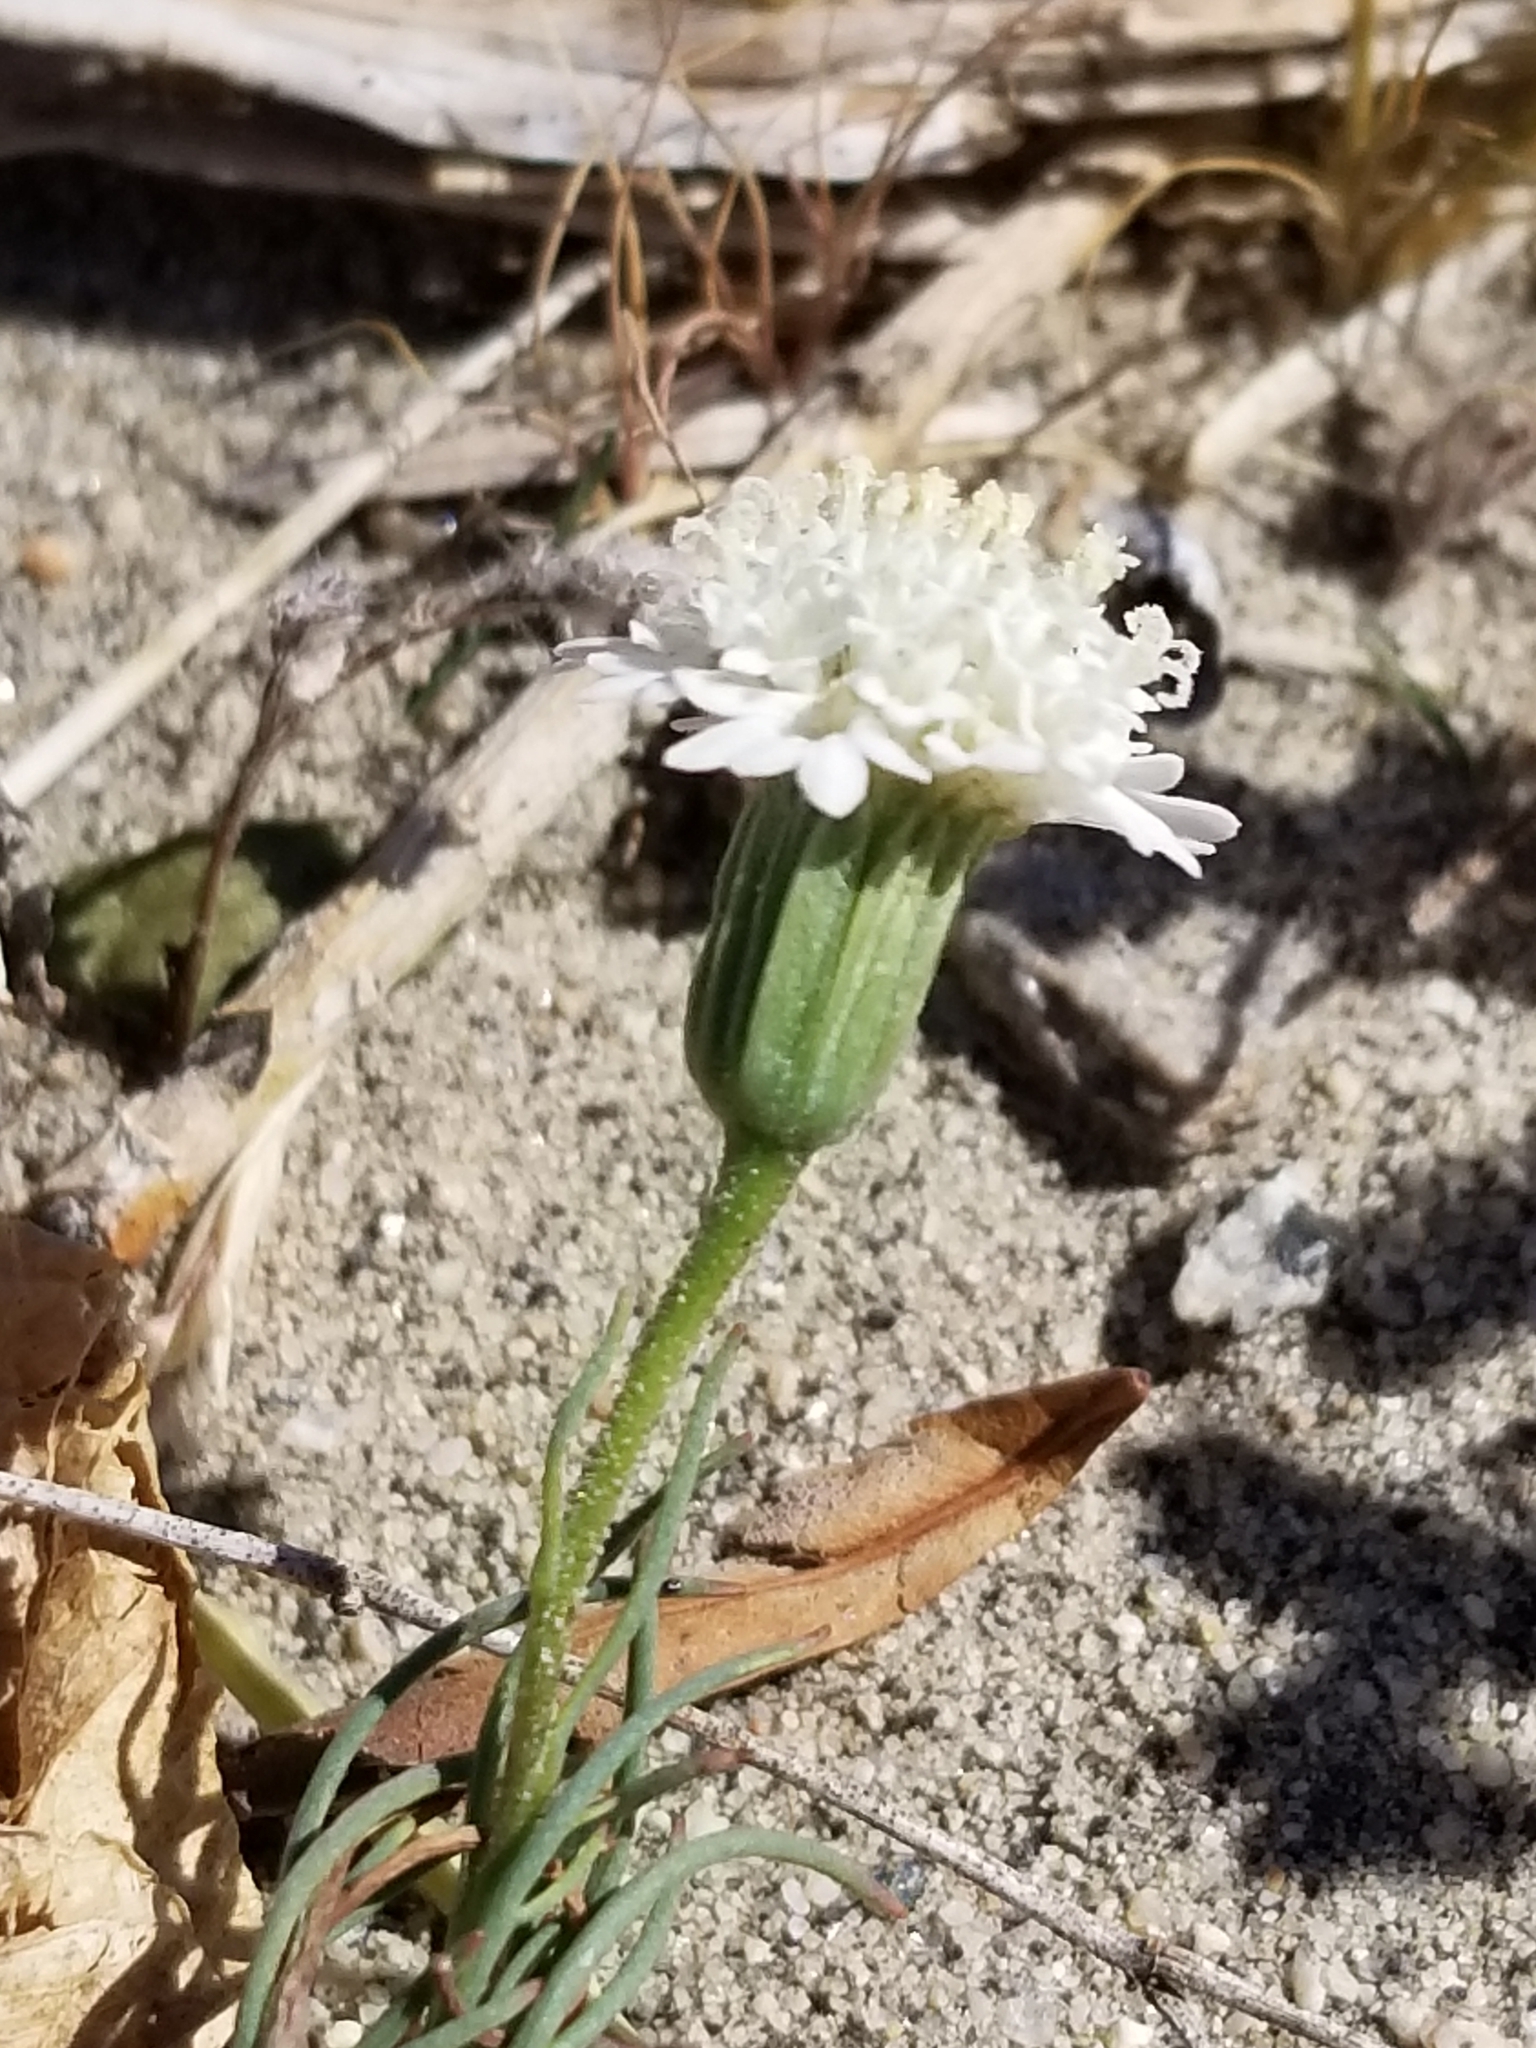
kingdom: Plantae
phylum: Tracheophyta
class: Magnoliopsida
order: Asterales
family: Asteraceae
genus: Chaenactis
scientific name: Chaenactis fremontii
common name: Fremont pincushion
